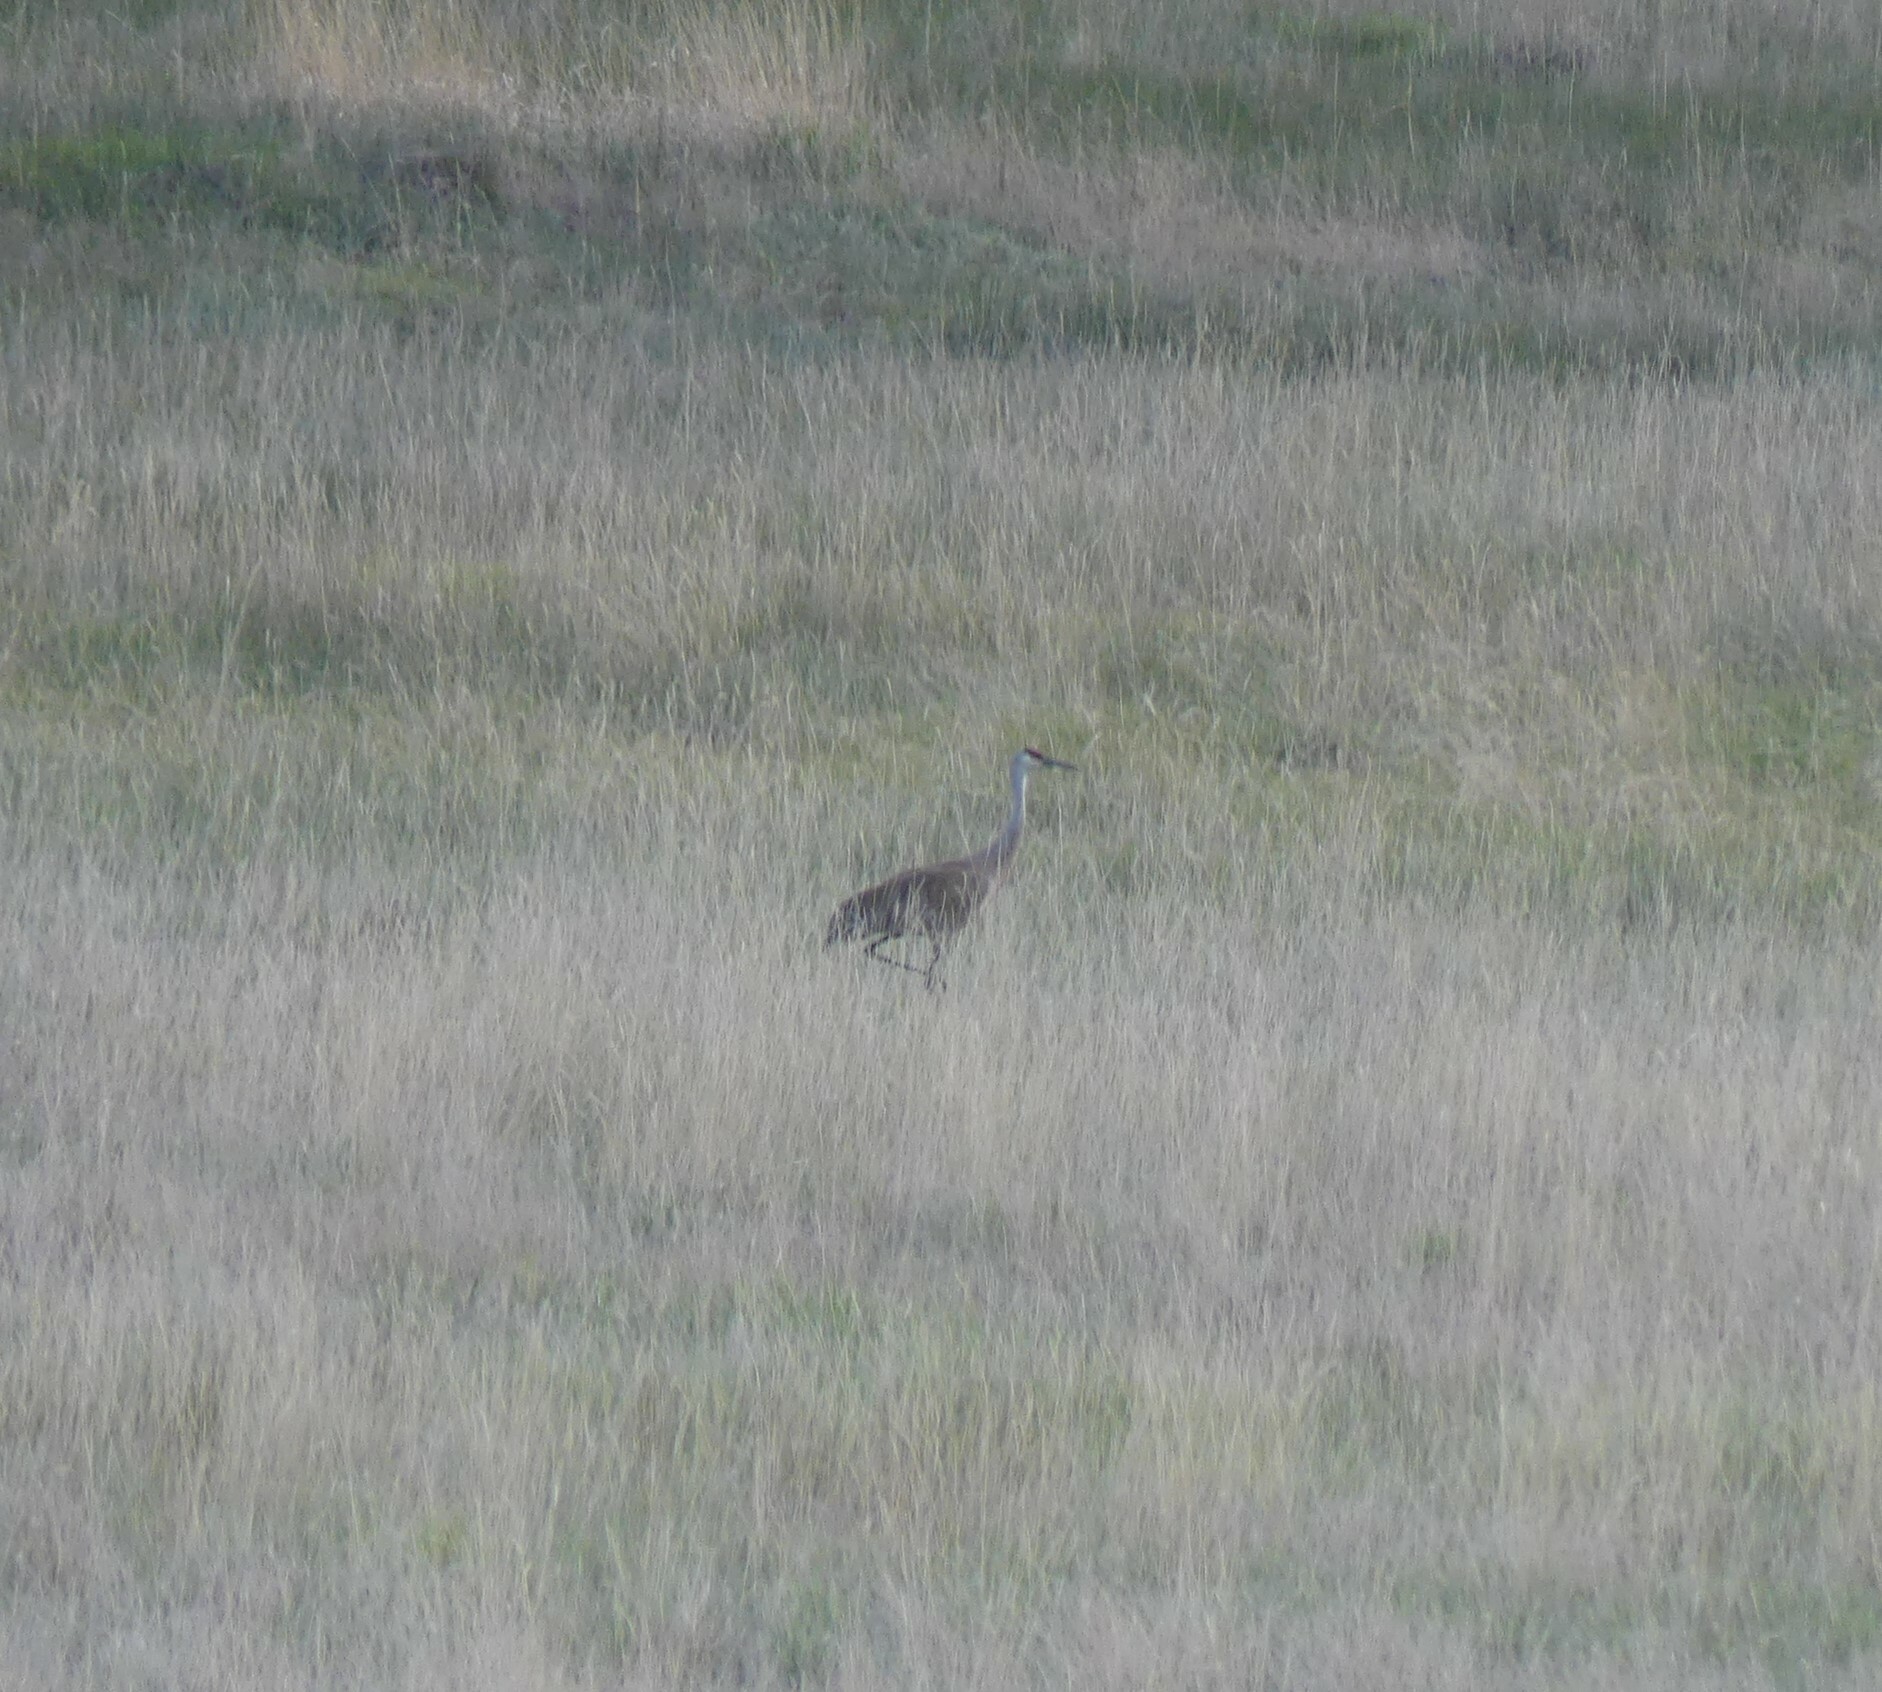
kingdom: Animalia
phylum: Chordata
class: Aves
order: Gruiformes
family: Gruidae
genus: Grus
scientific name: Grus canadensis
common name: Sandhill crane
